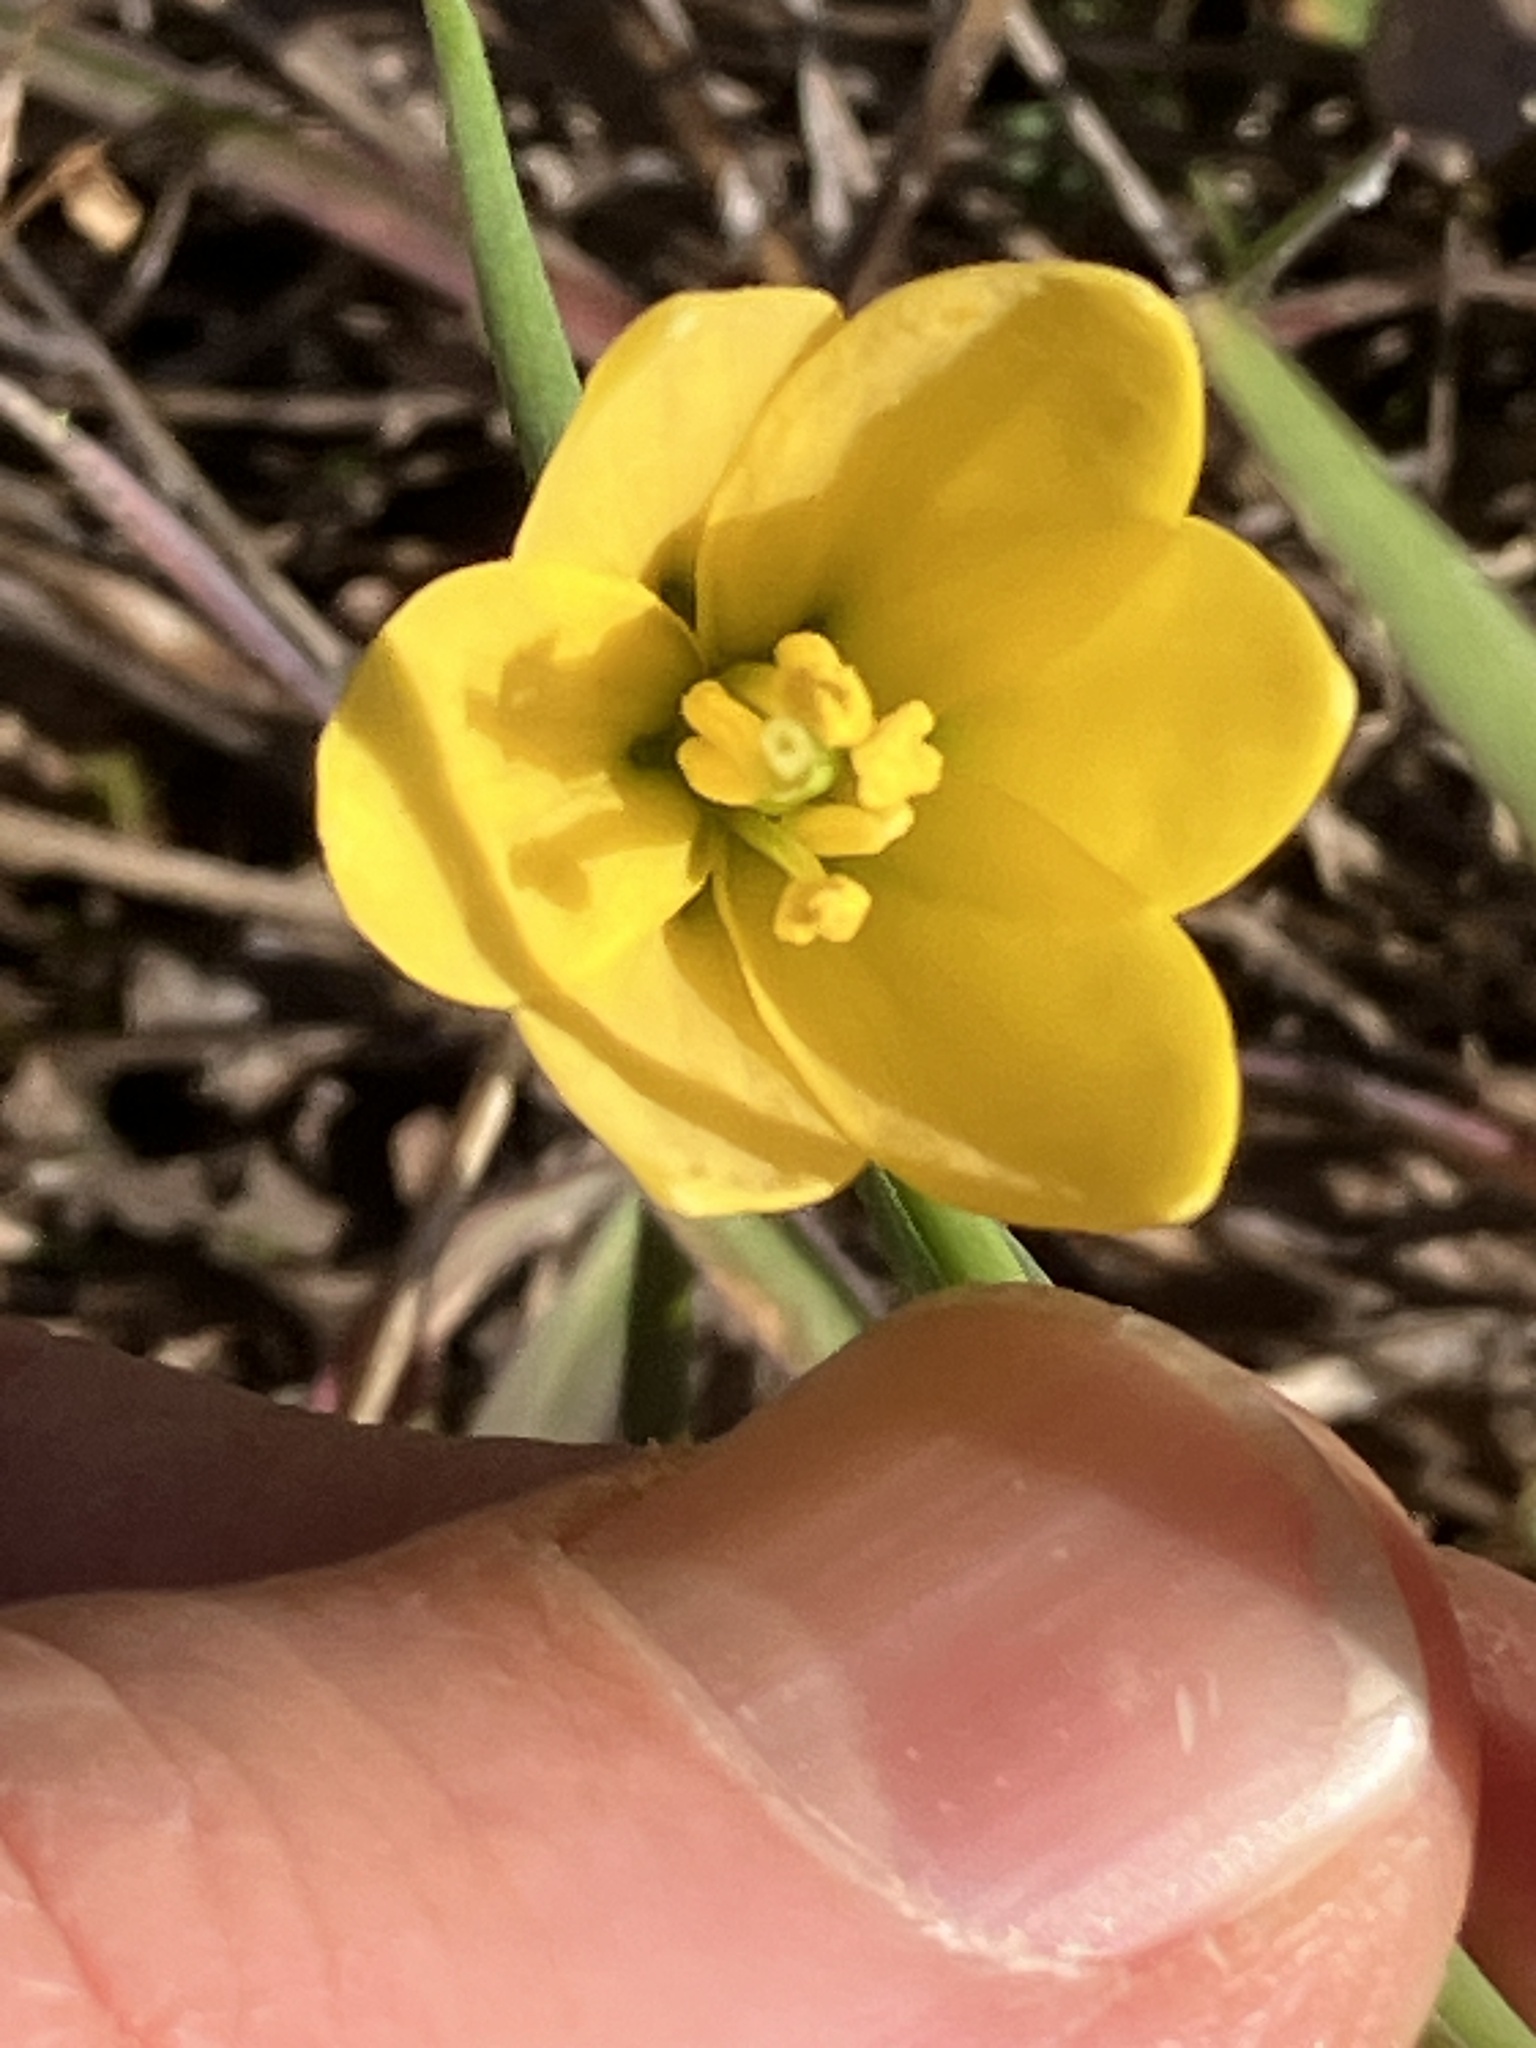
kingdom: Plantae
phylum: Tracheophyta
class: Liliopsida
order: Liliales
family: Liliaceae
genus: Fritillaria
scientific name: Fritillaria pudica
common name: Yellow fritillary
